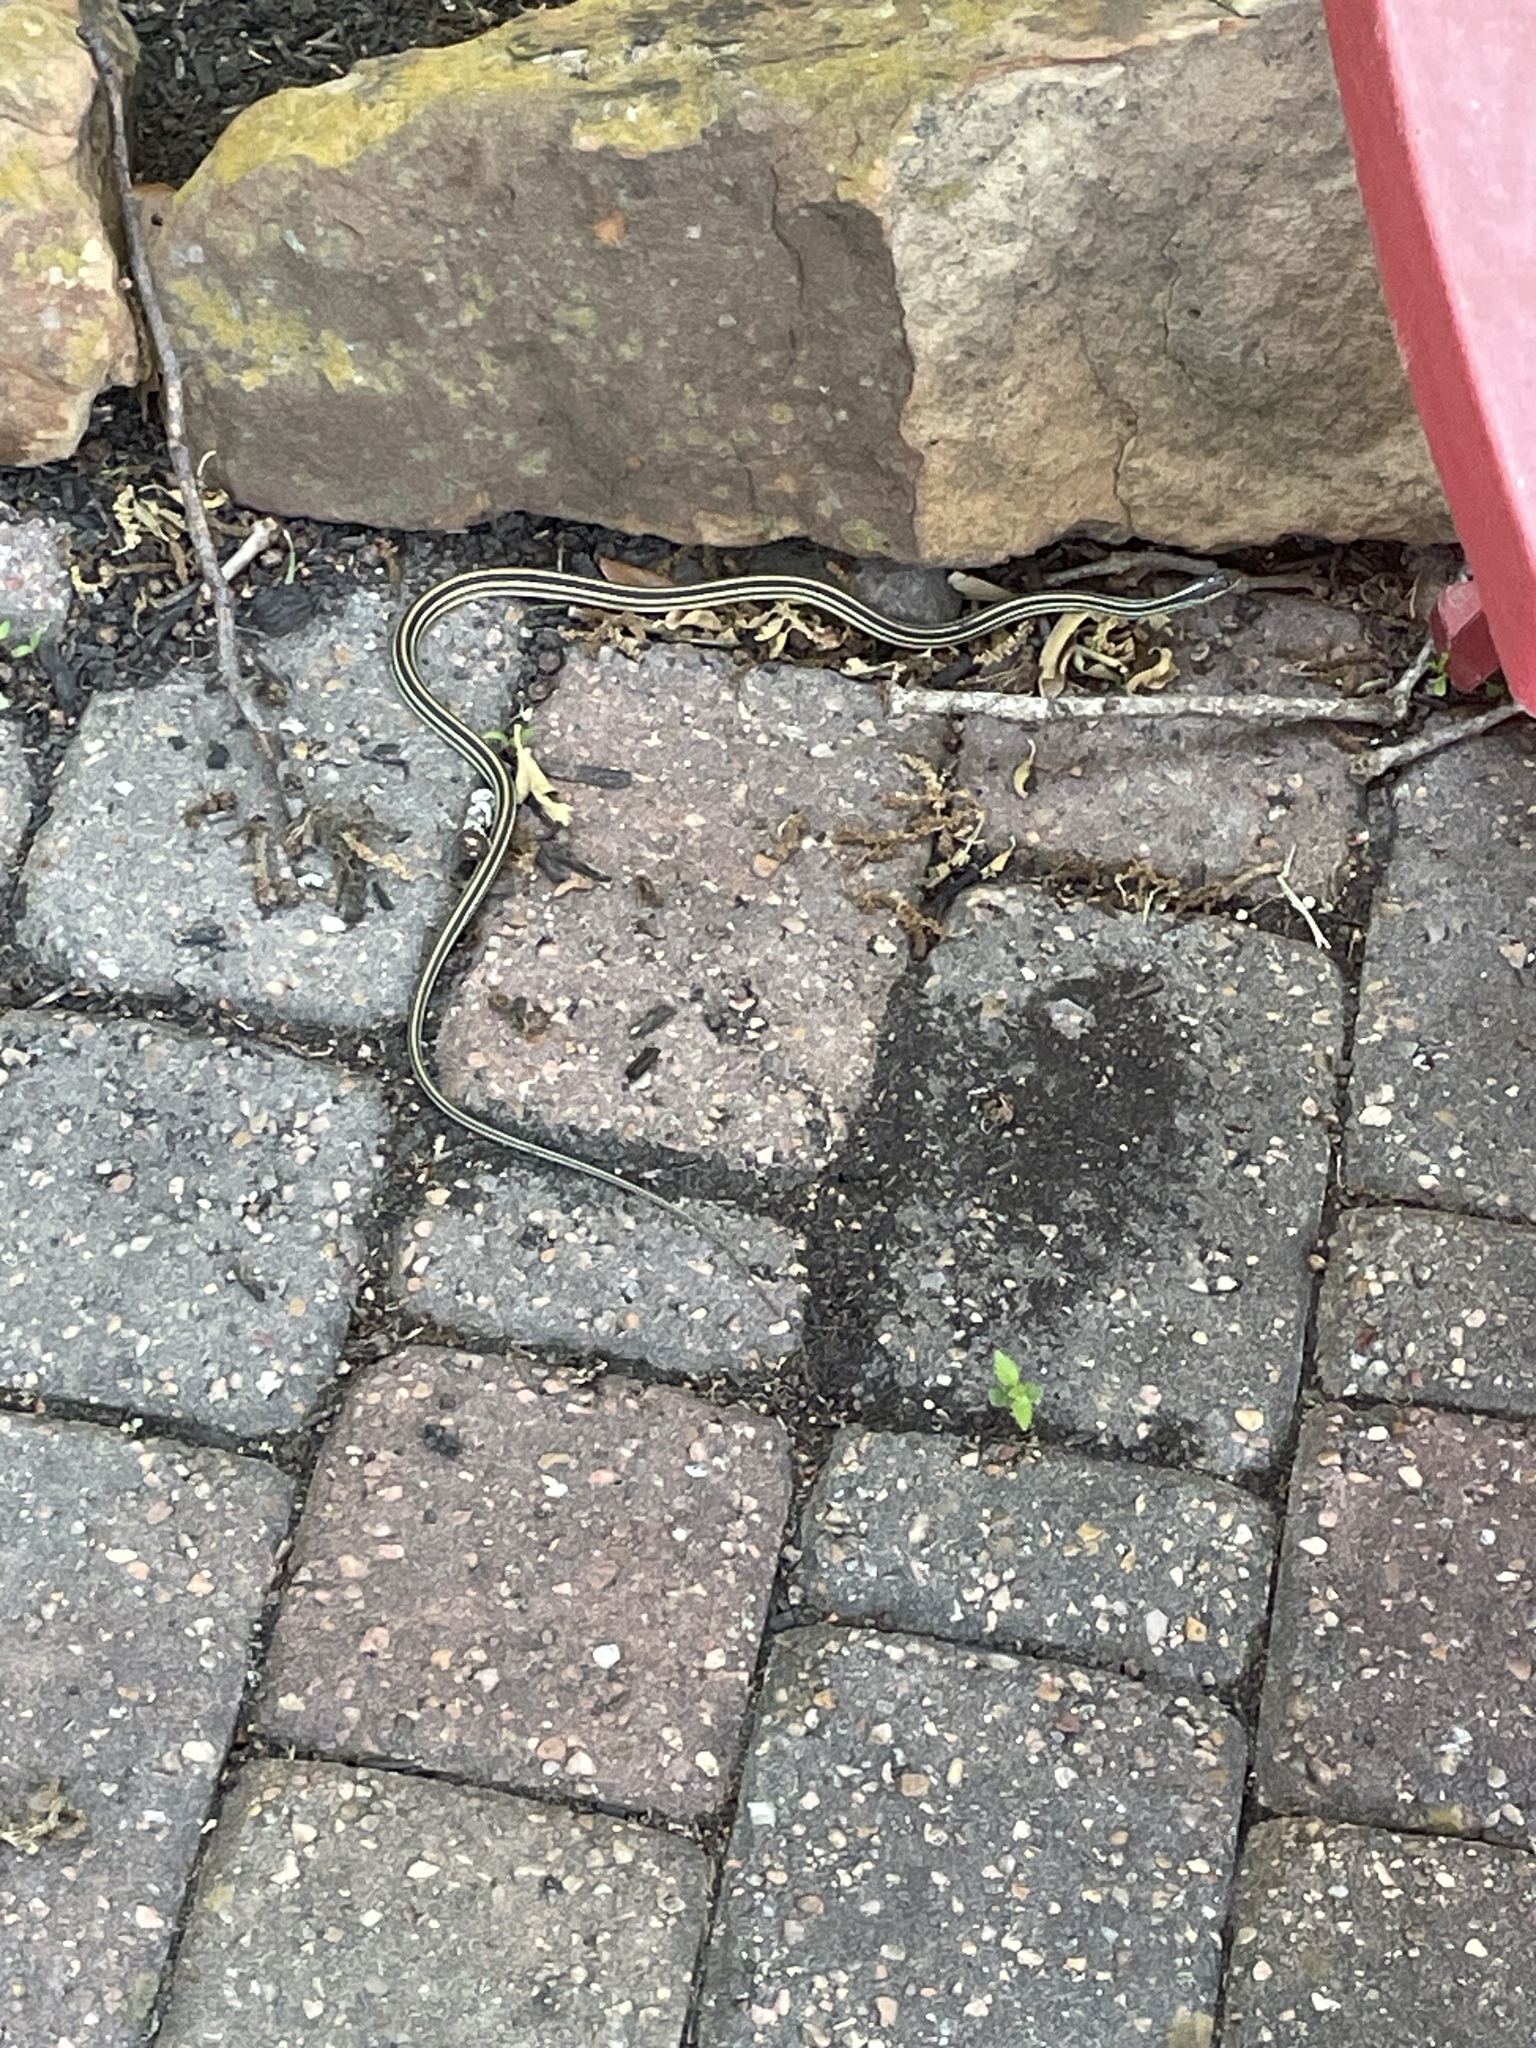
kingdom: Animalia
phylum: Chordata
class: Squamata
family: Colubridae
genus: Thamnophis
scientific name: Thamnophis proximus
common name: Western ribbon snake
